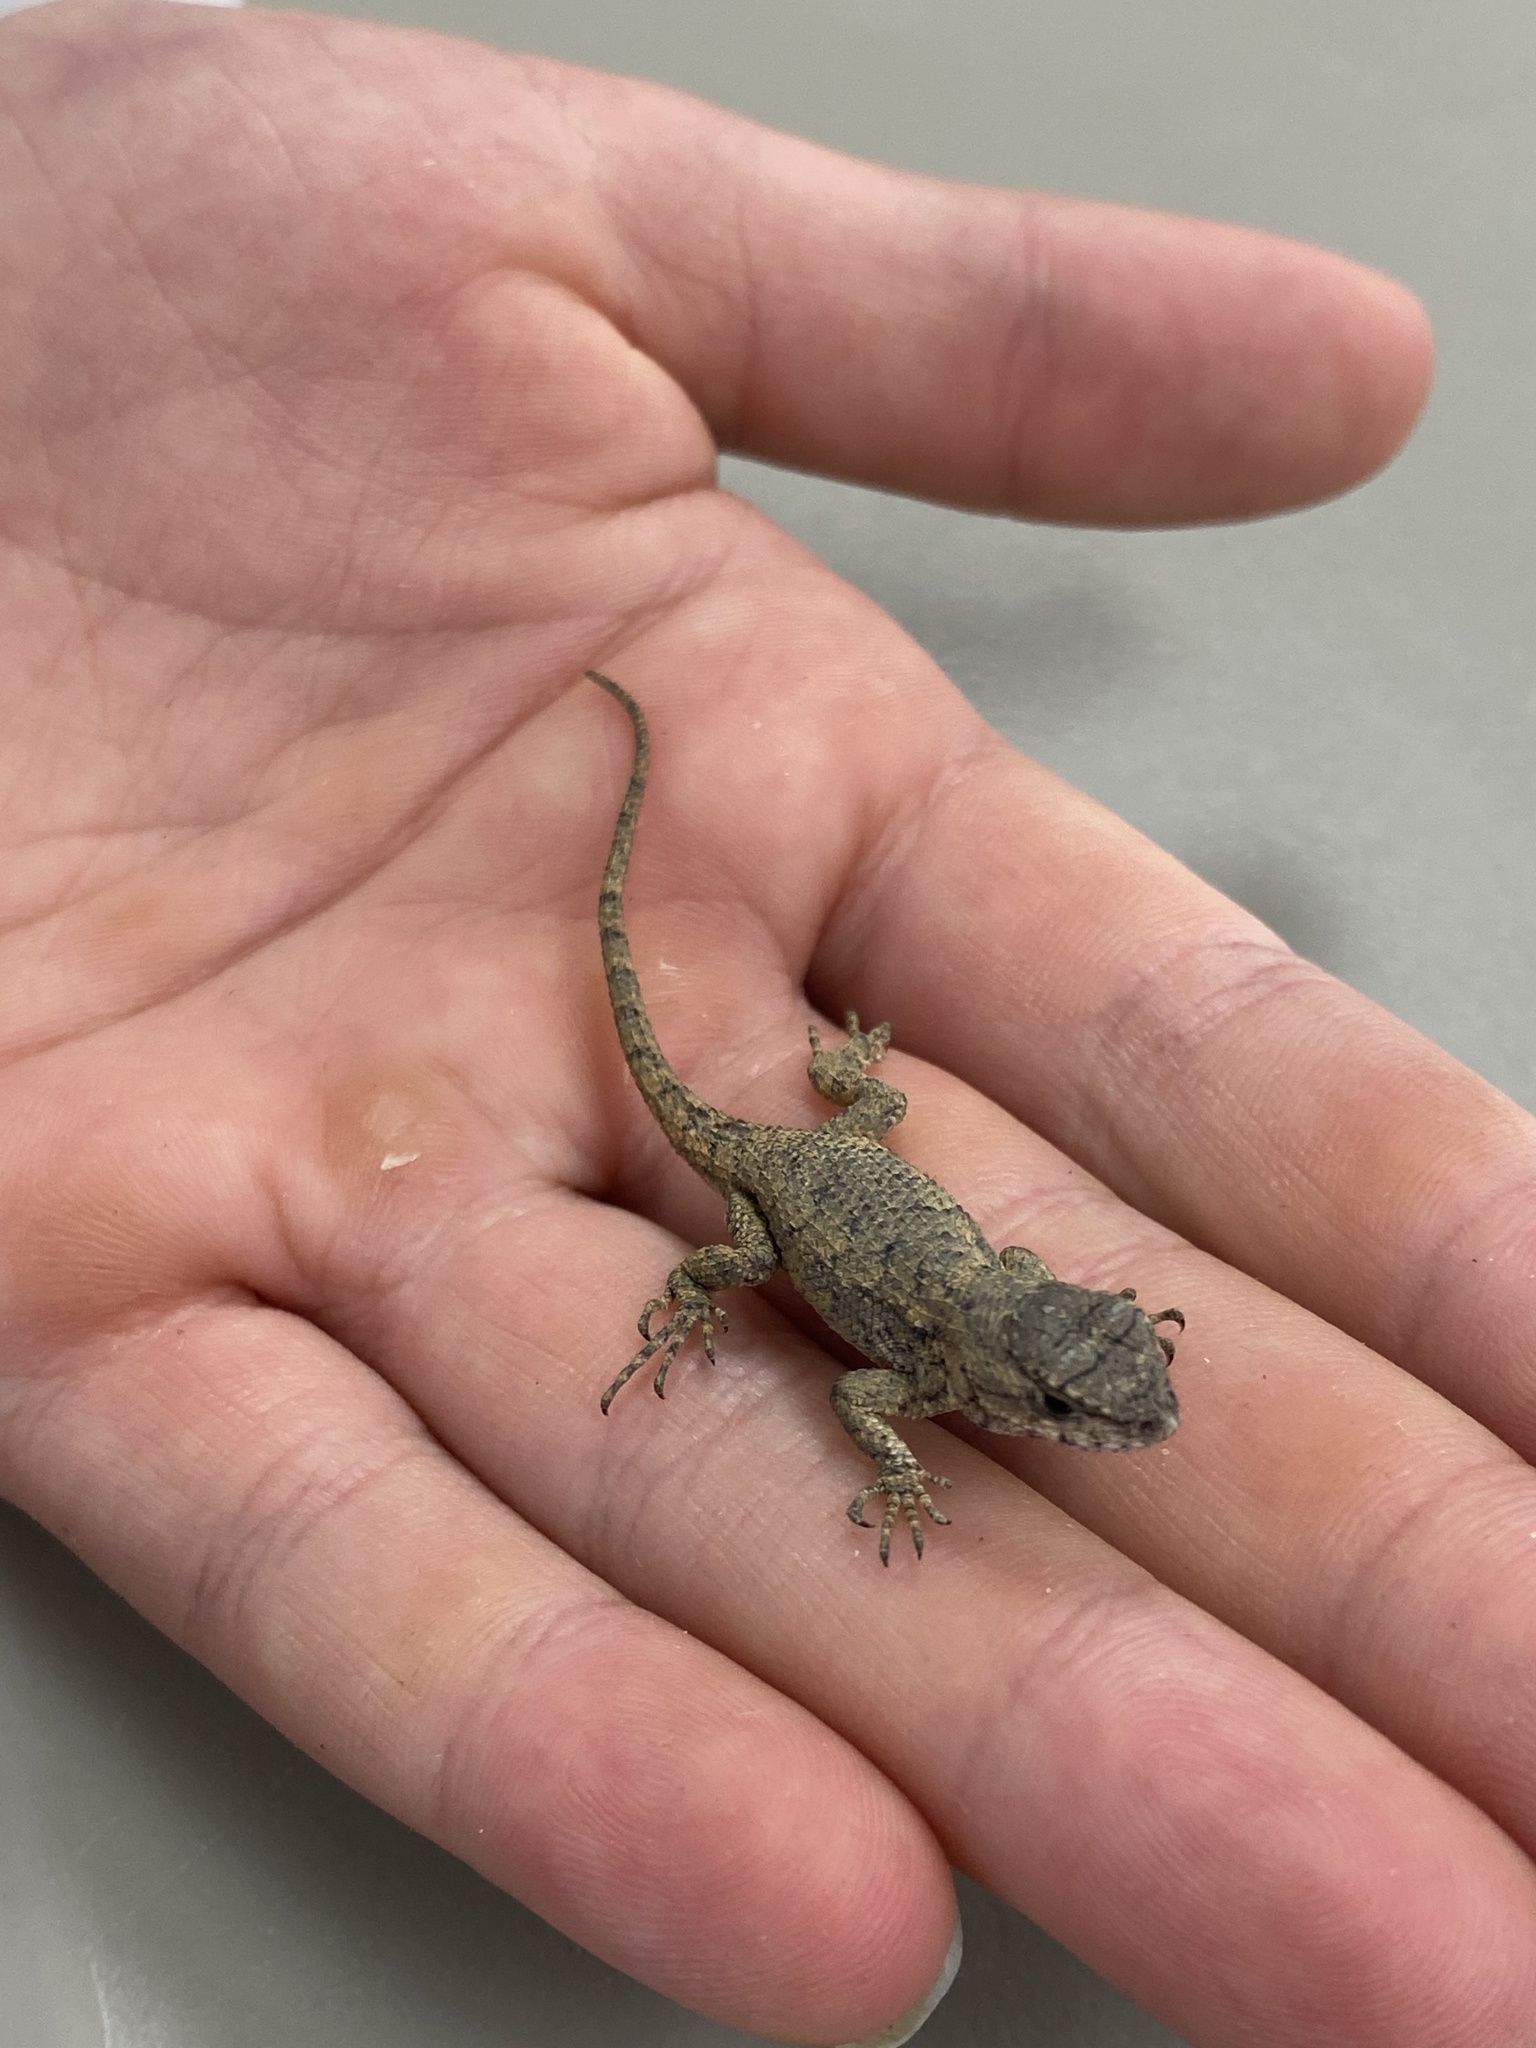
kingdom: Animalia
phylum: Chordata
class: Squamata
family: Phrynosomatidae
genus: Sceloporus
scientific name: Sceloporus undulatus
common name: Eastern fence lizard
